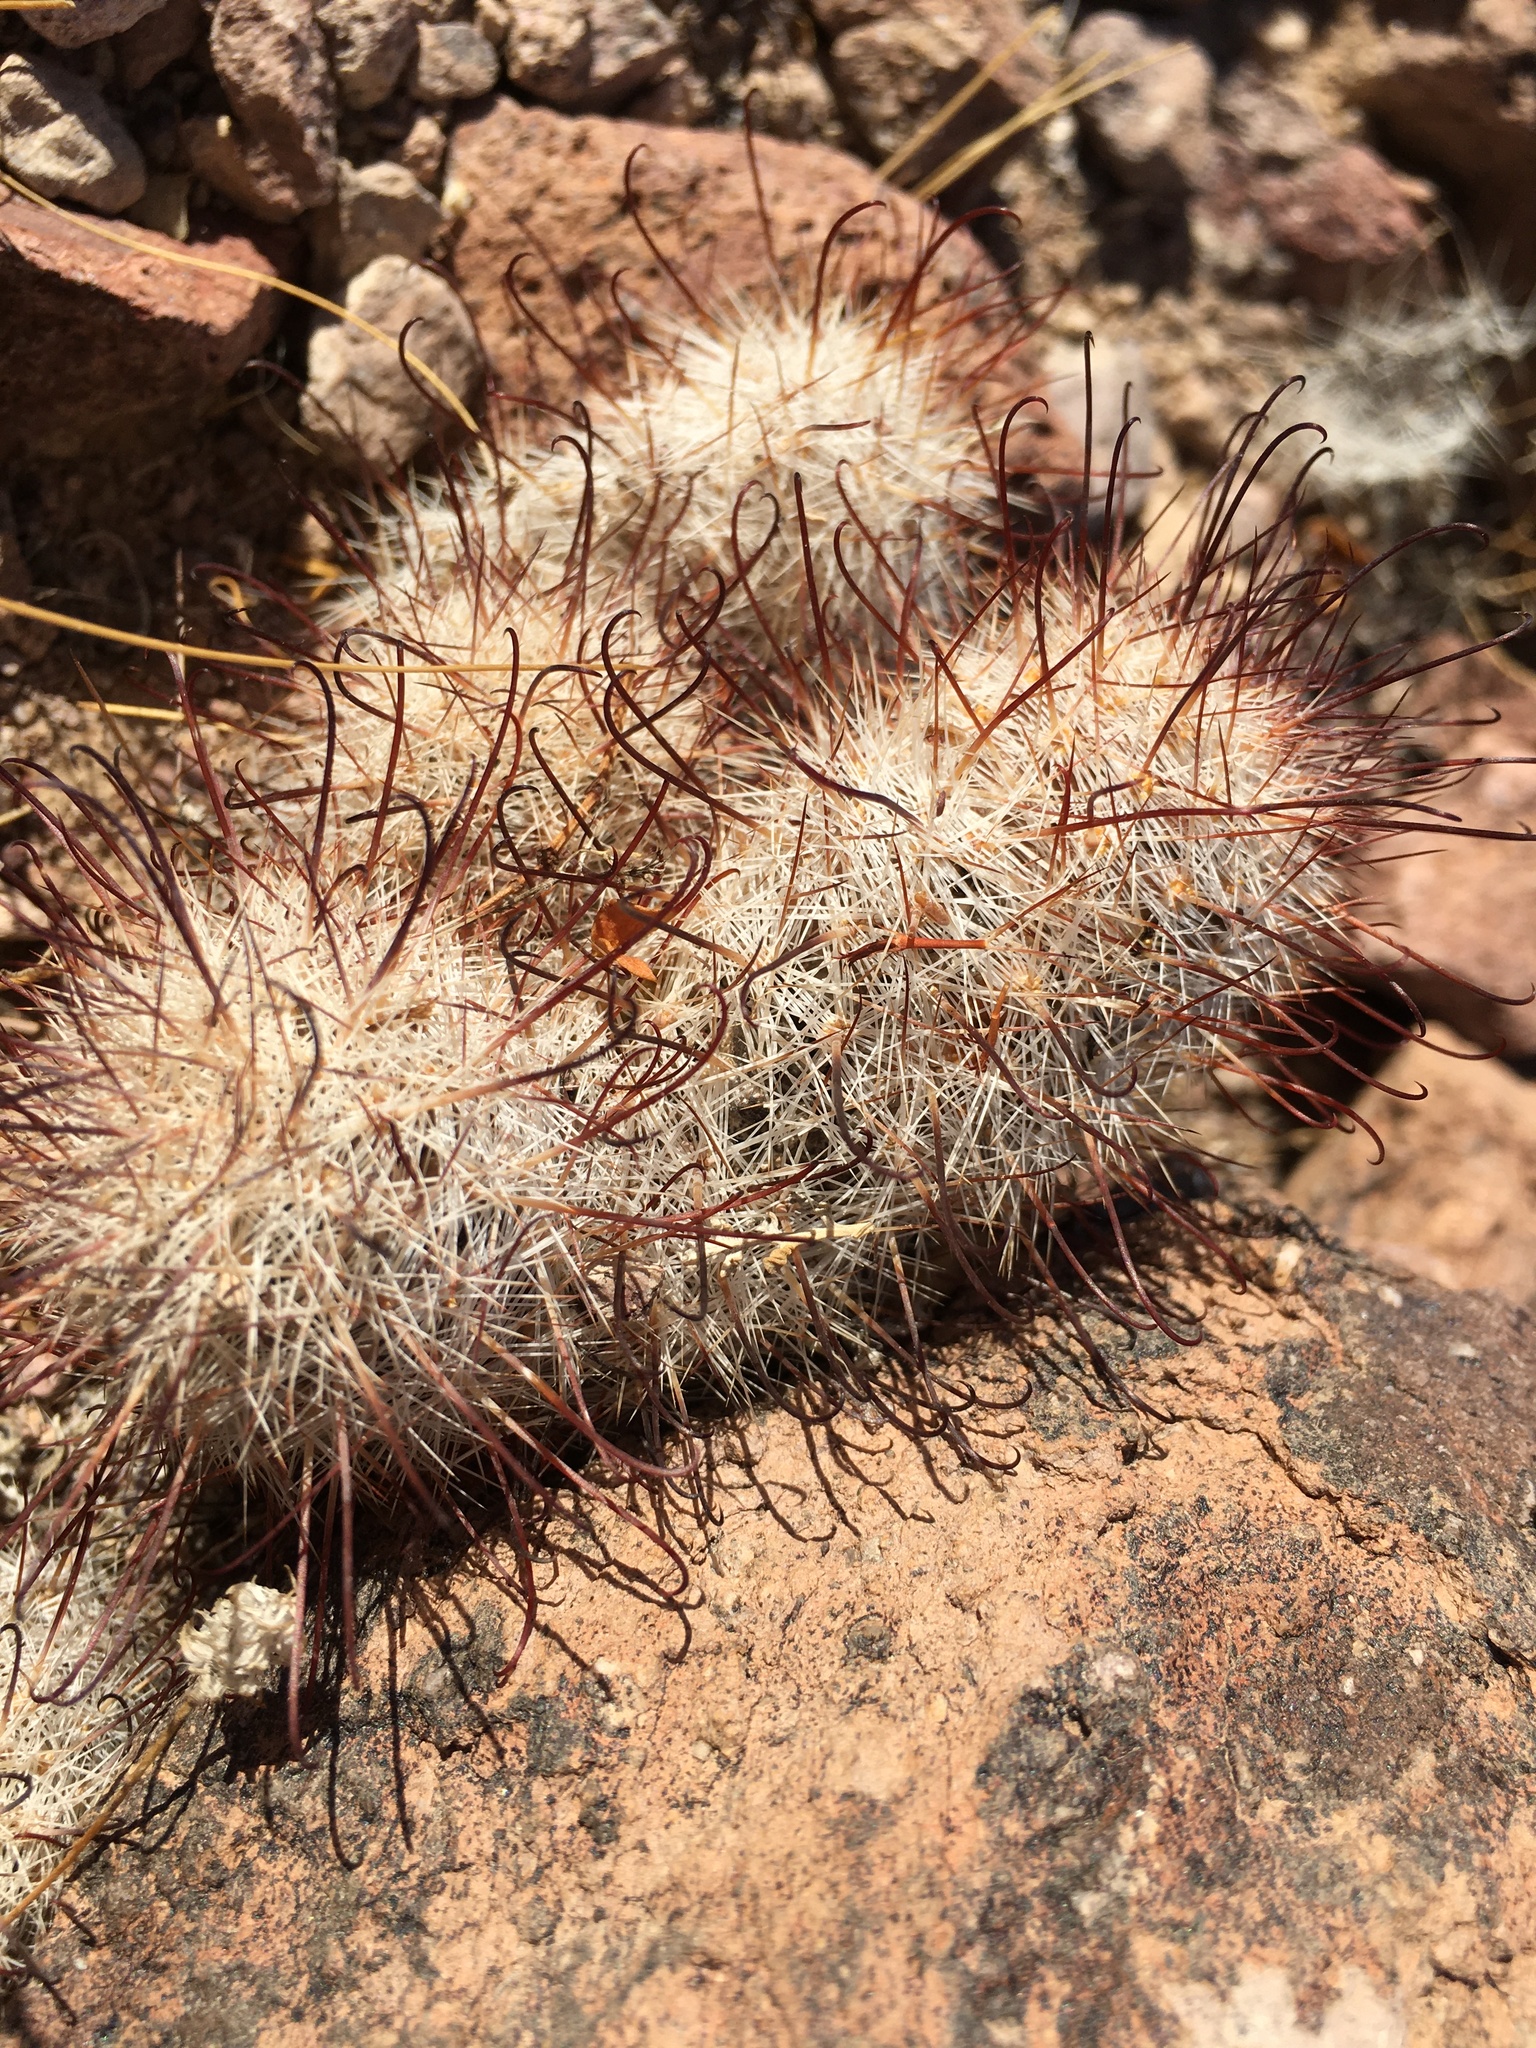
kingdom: Plantae
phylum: Tracheophyta
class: Magnoliopsida
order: Caryophyllales
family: Cactaceae
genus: Cochemiea
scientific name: Cochemiea tetrancistra
